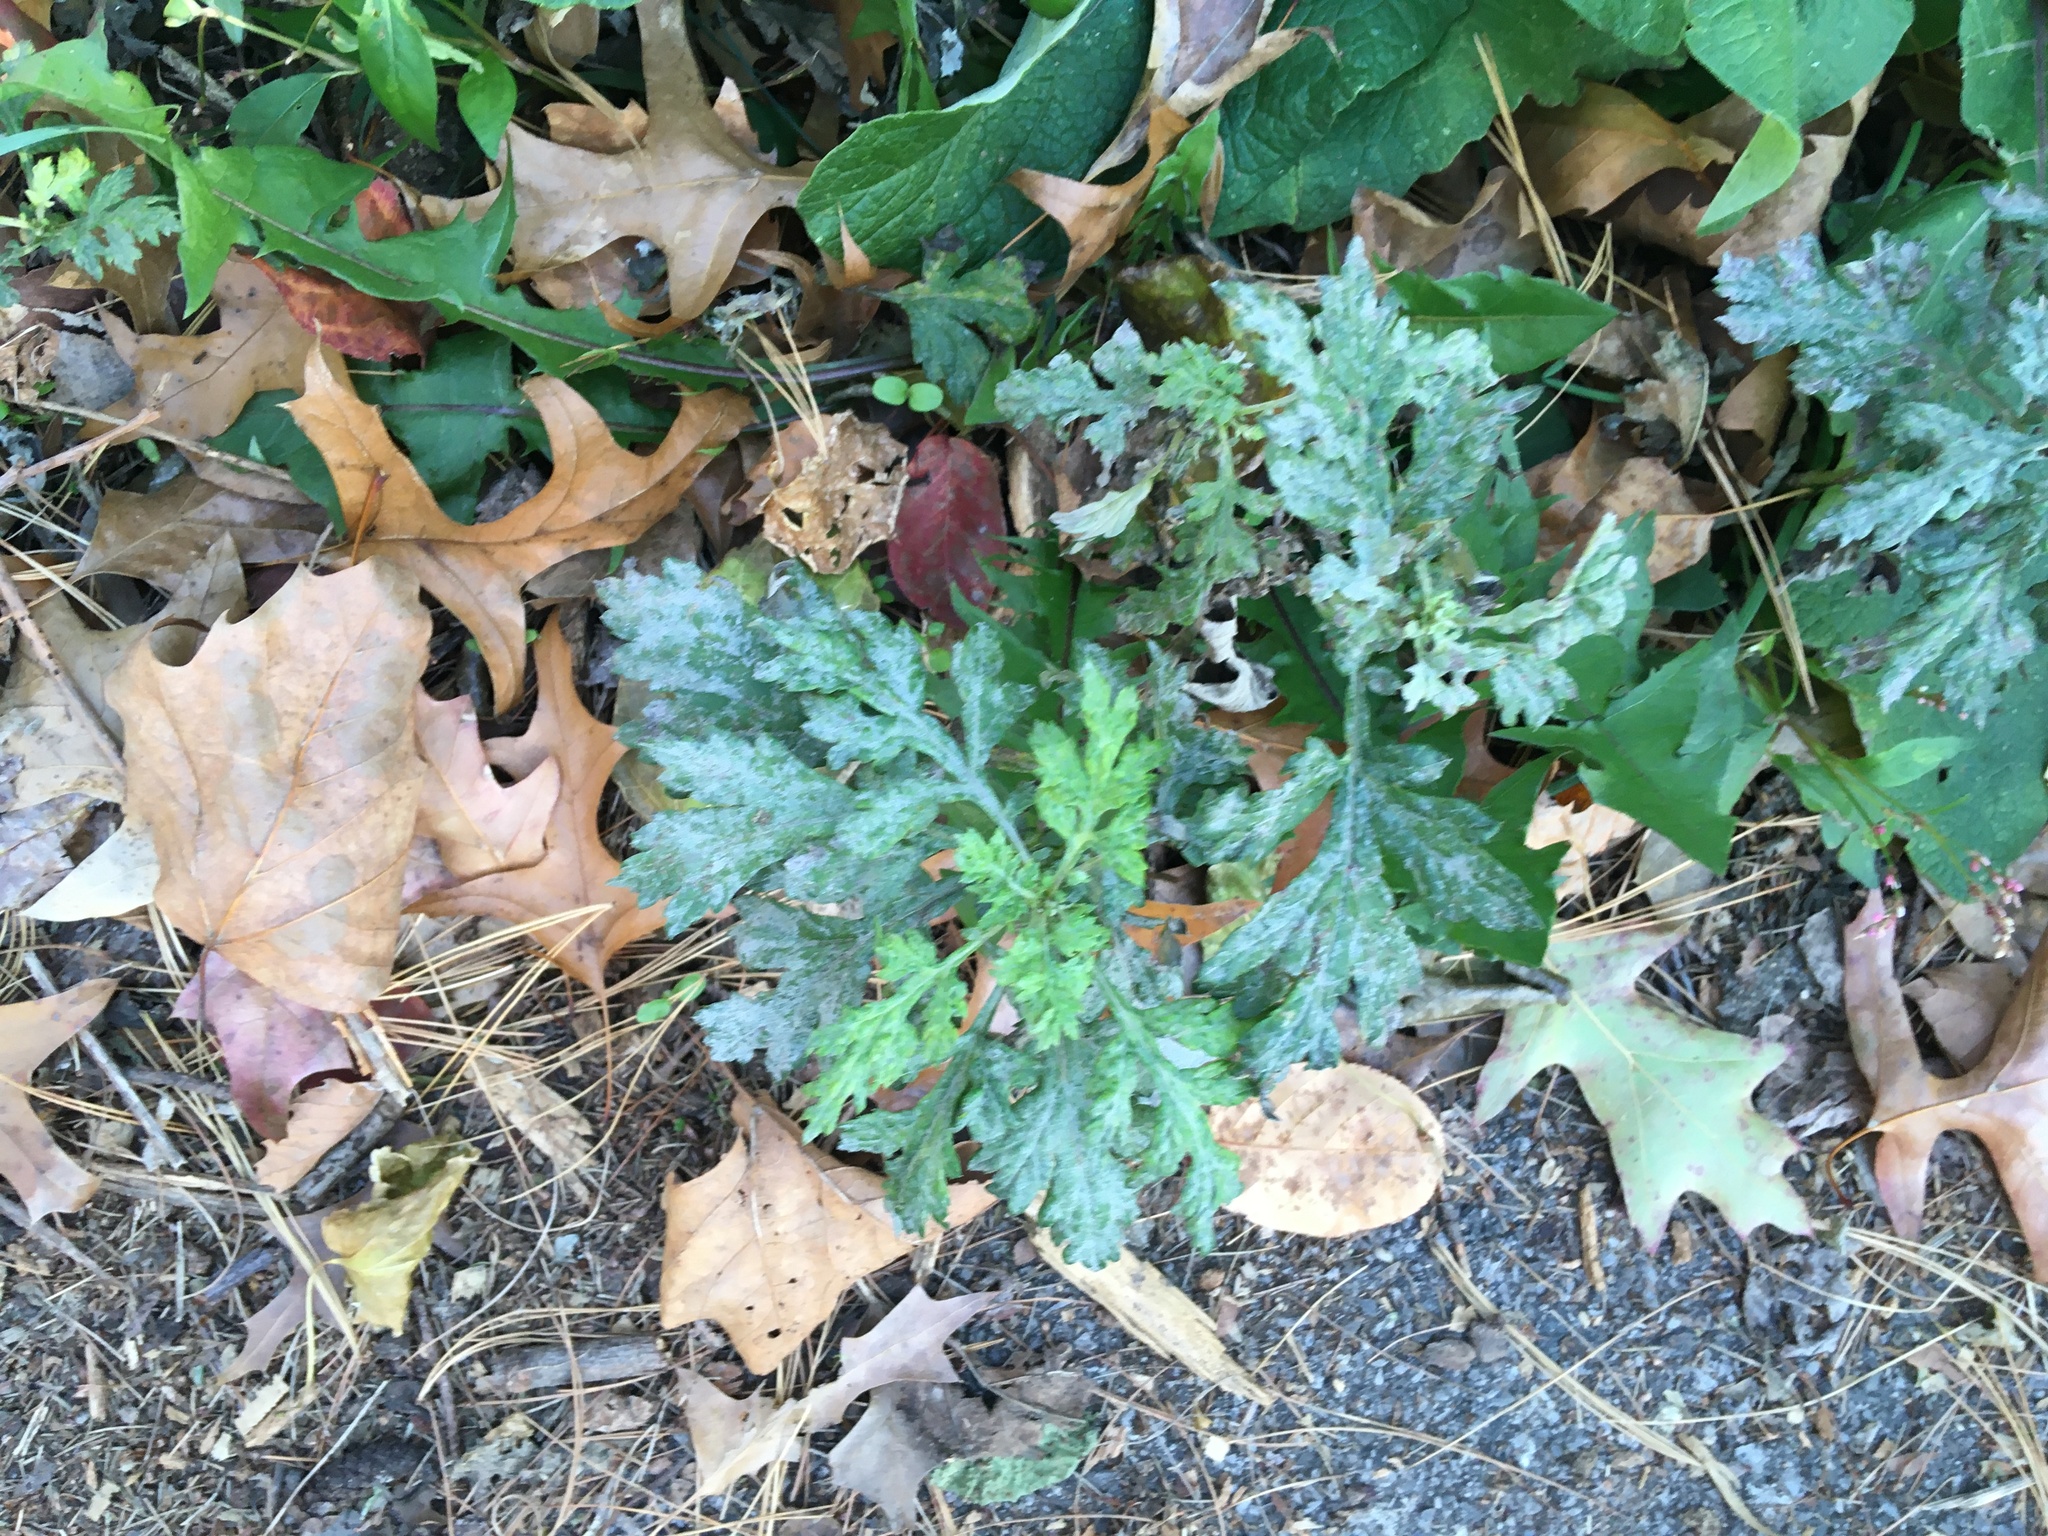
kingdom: Plantae
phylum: Tracheophyta
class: Magnoliopsida
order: Asterales
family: Asteraceae
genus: Artemisia
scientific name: Artemisia vulgaris
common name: Mugwort
